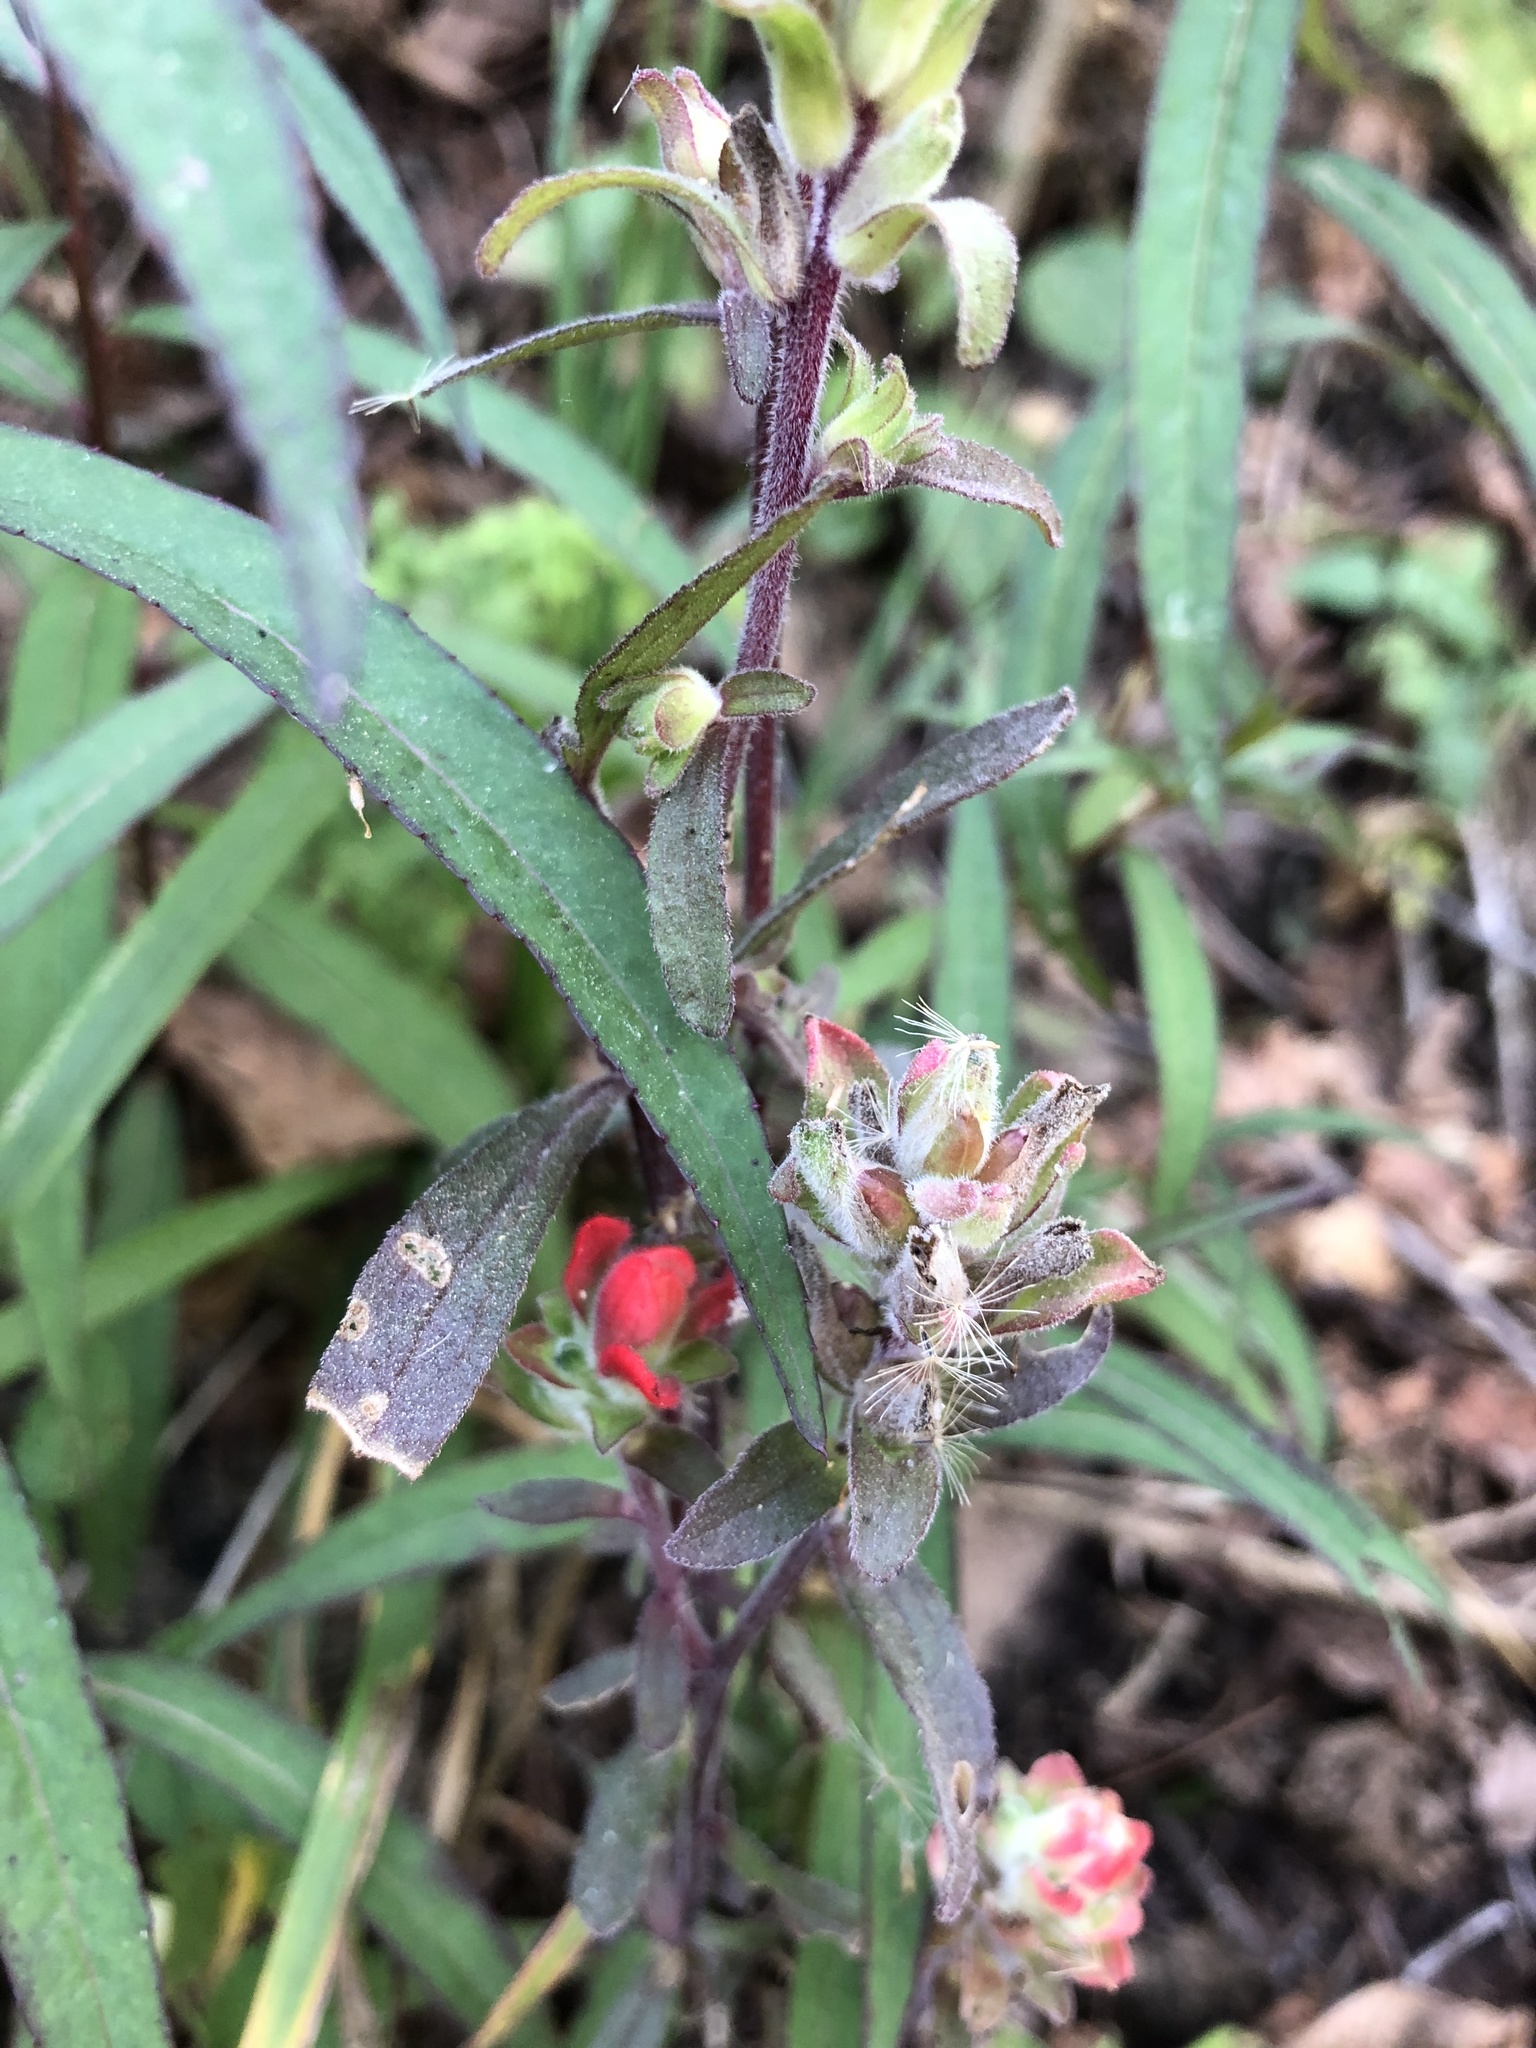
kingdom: Plantae
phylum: Tracheophyta
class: Magnoliopsida
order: Lamiales
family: Orobanchaceae
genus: Castilleja
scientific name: Castilleja arvensis
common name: Indian paintbrush
